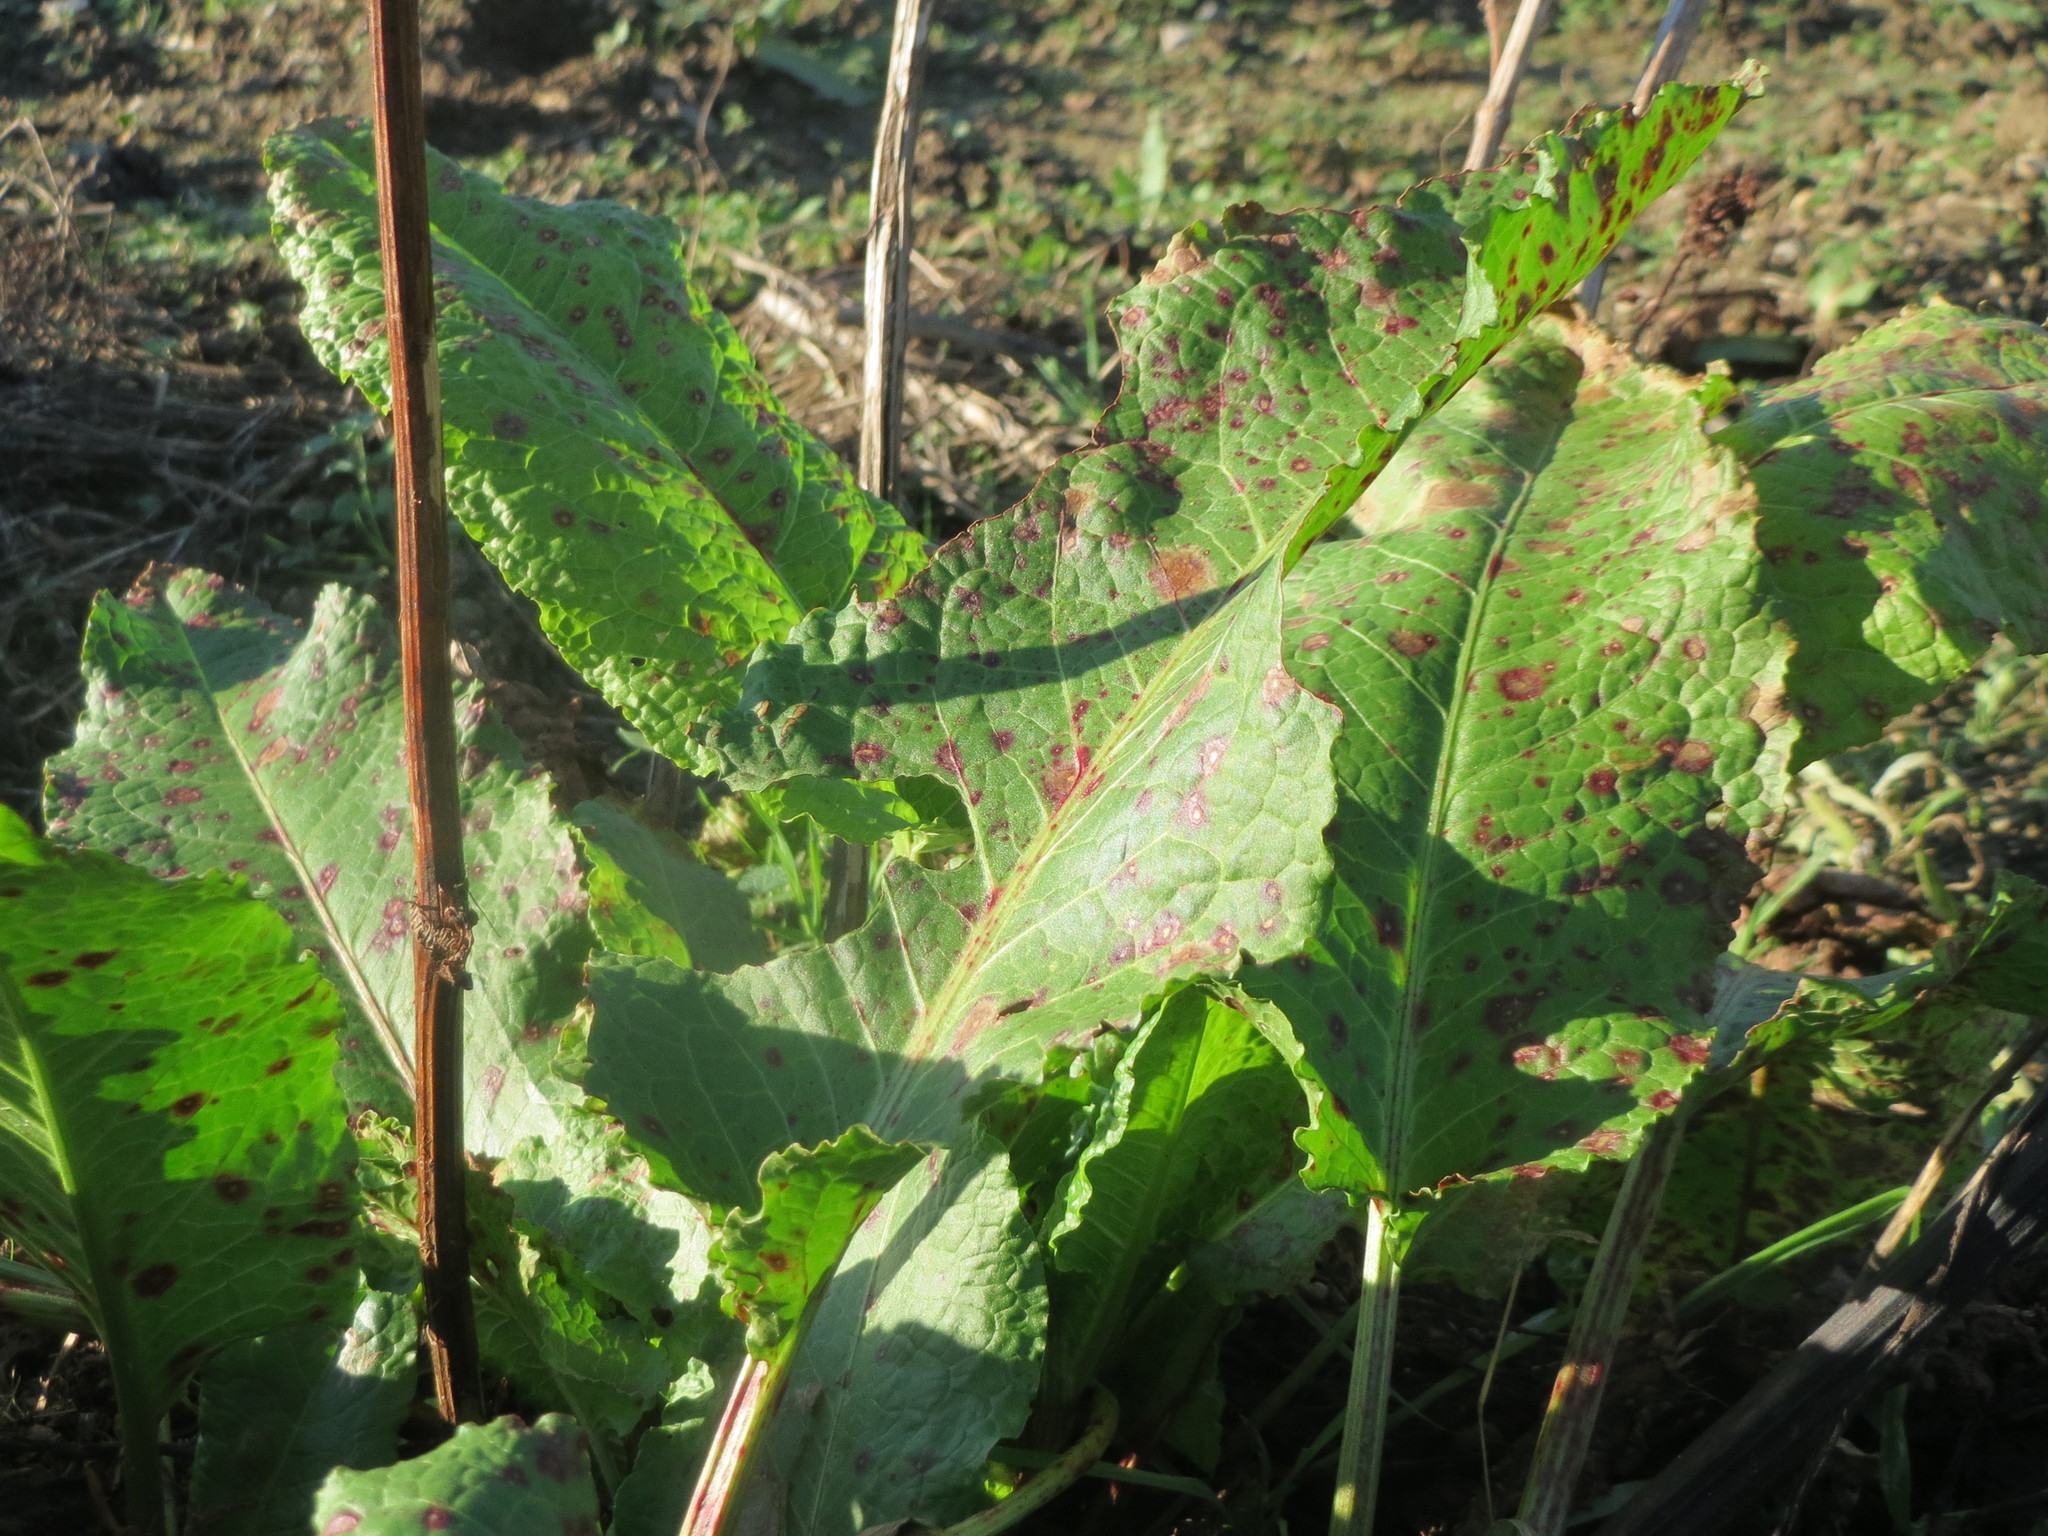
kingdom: Plantae
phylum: Tracheophyta
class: Magnoliopsida
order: Caryophyllales
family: Polygonaceae
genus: Rumex
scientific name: Rumex obtusifolius
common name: Bitter dock
